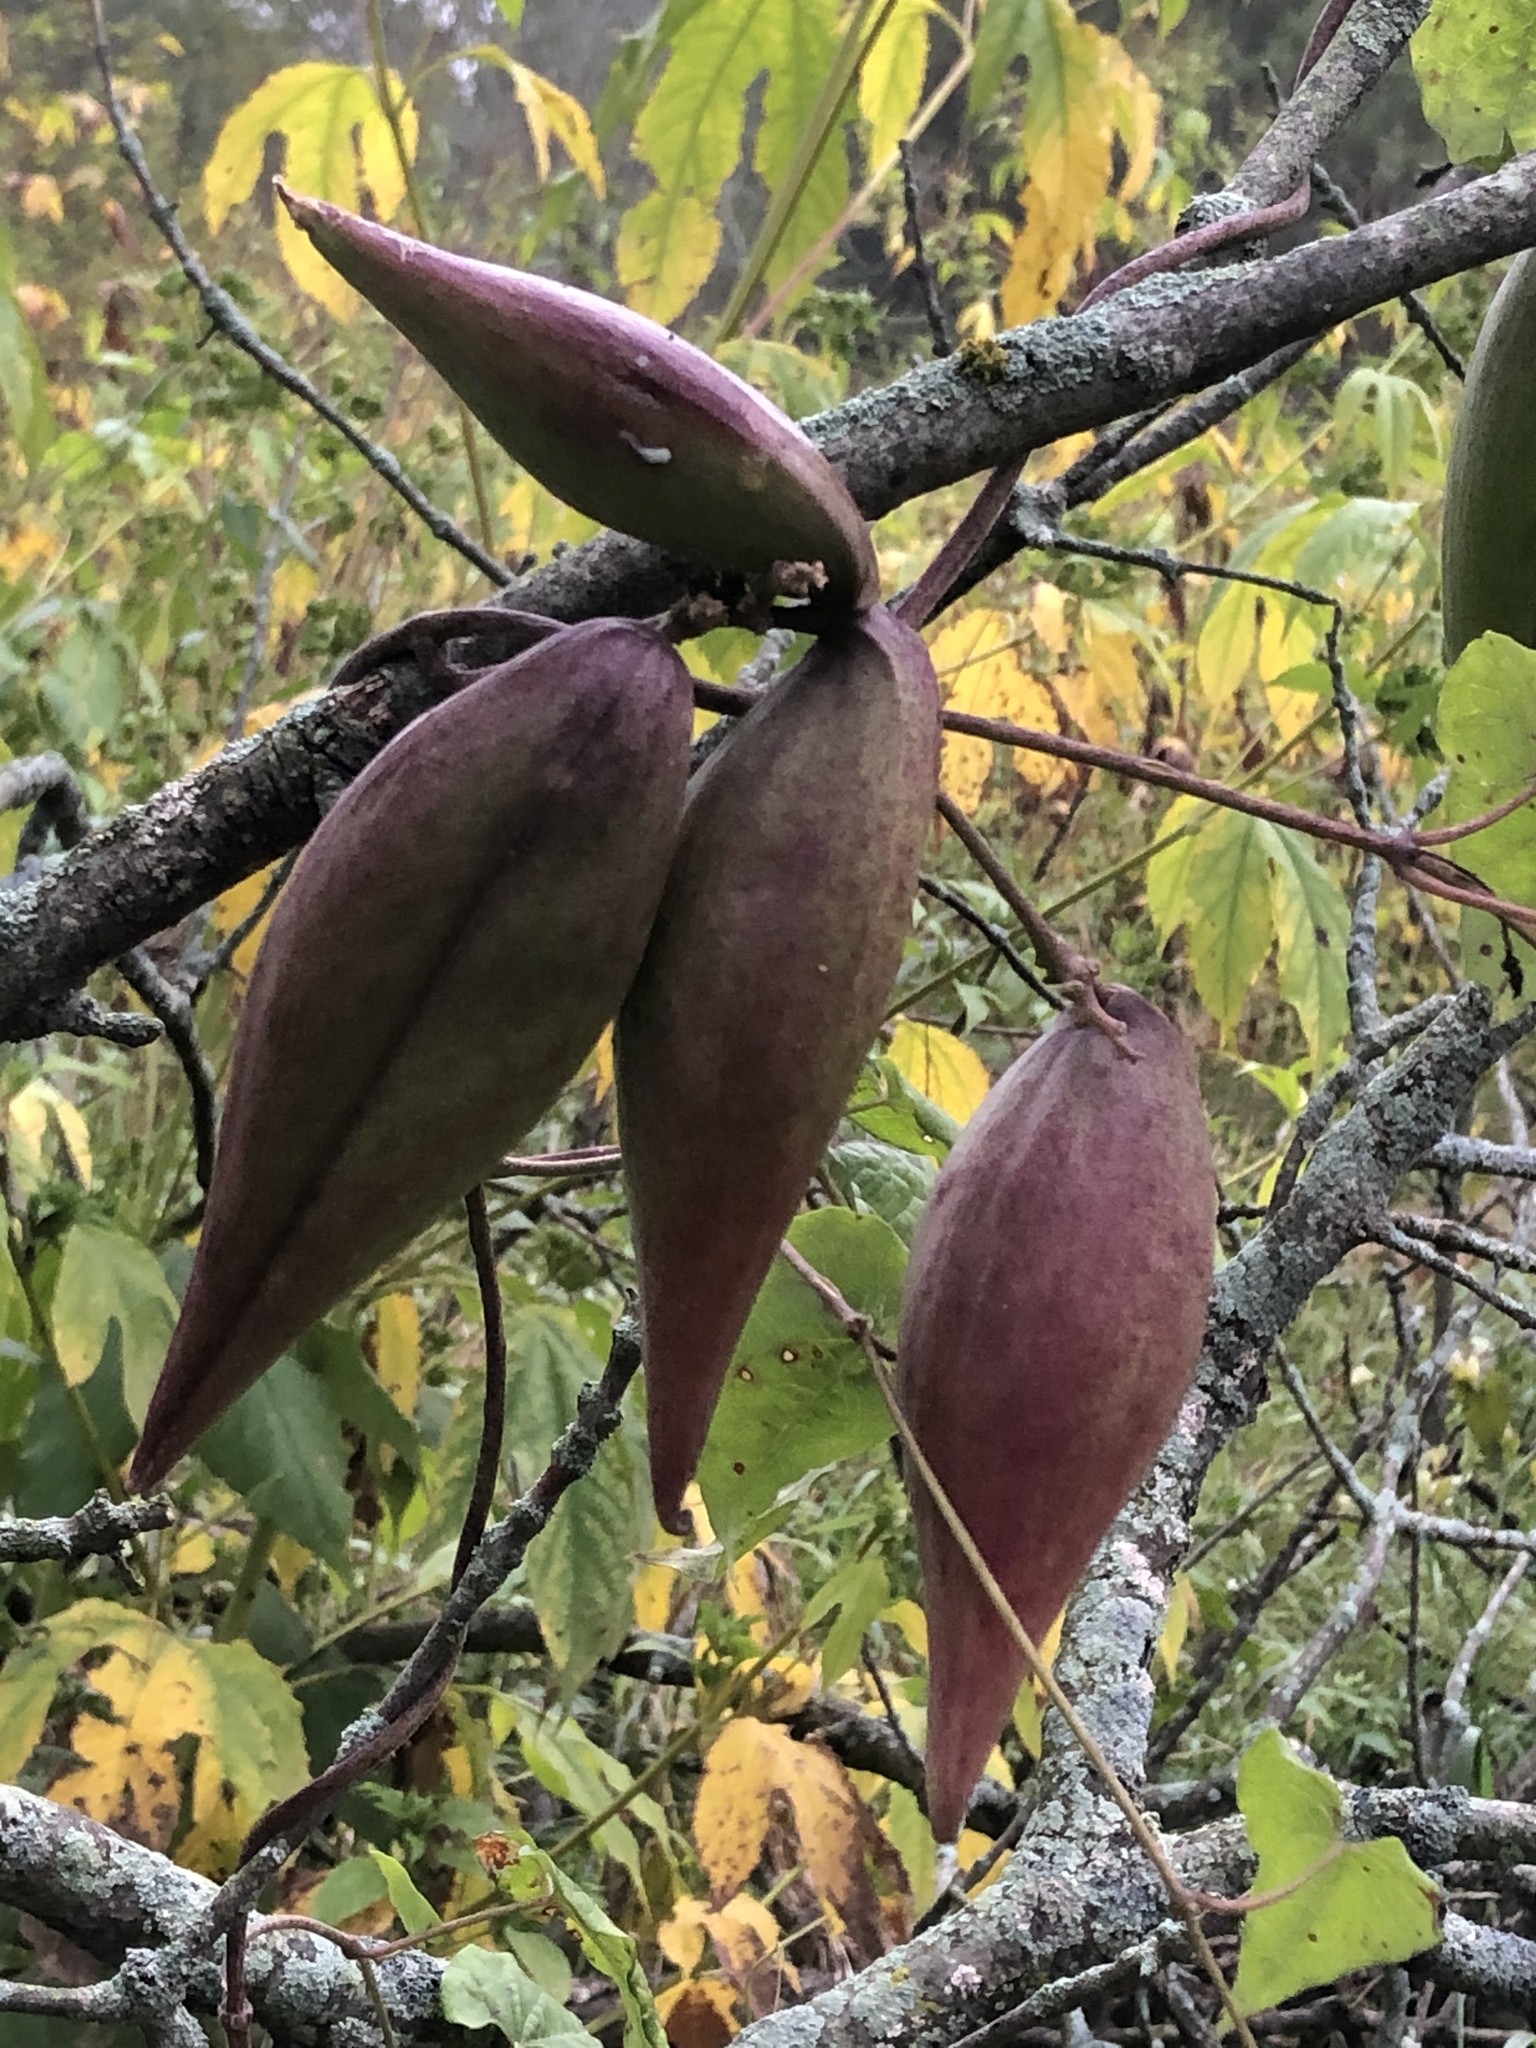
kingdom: Plantae
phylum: Tracheophyta
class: Magnoliopsida
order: Gentianales
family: Apocynaceae
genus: Cynanchum
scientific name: Cynanchum laeve
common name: Sandvine
